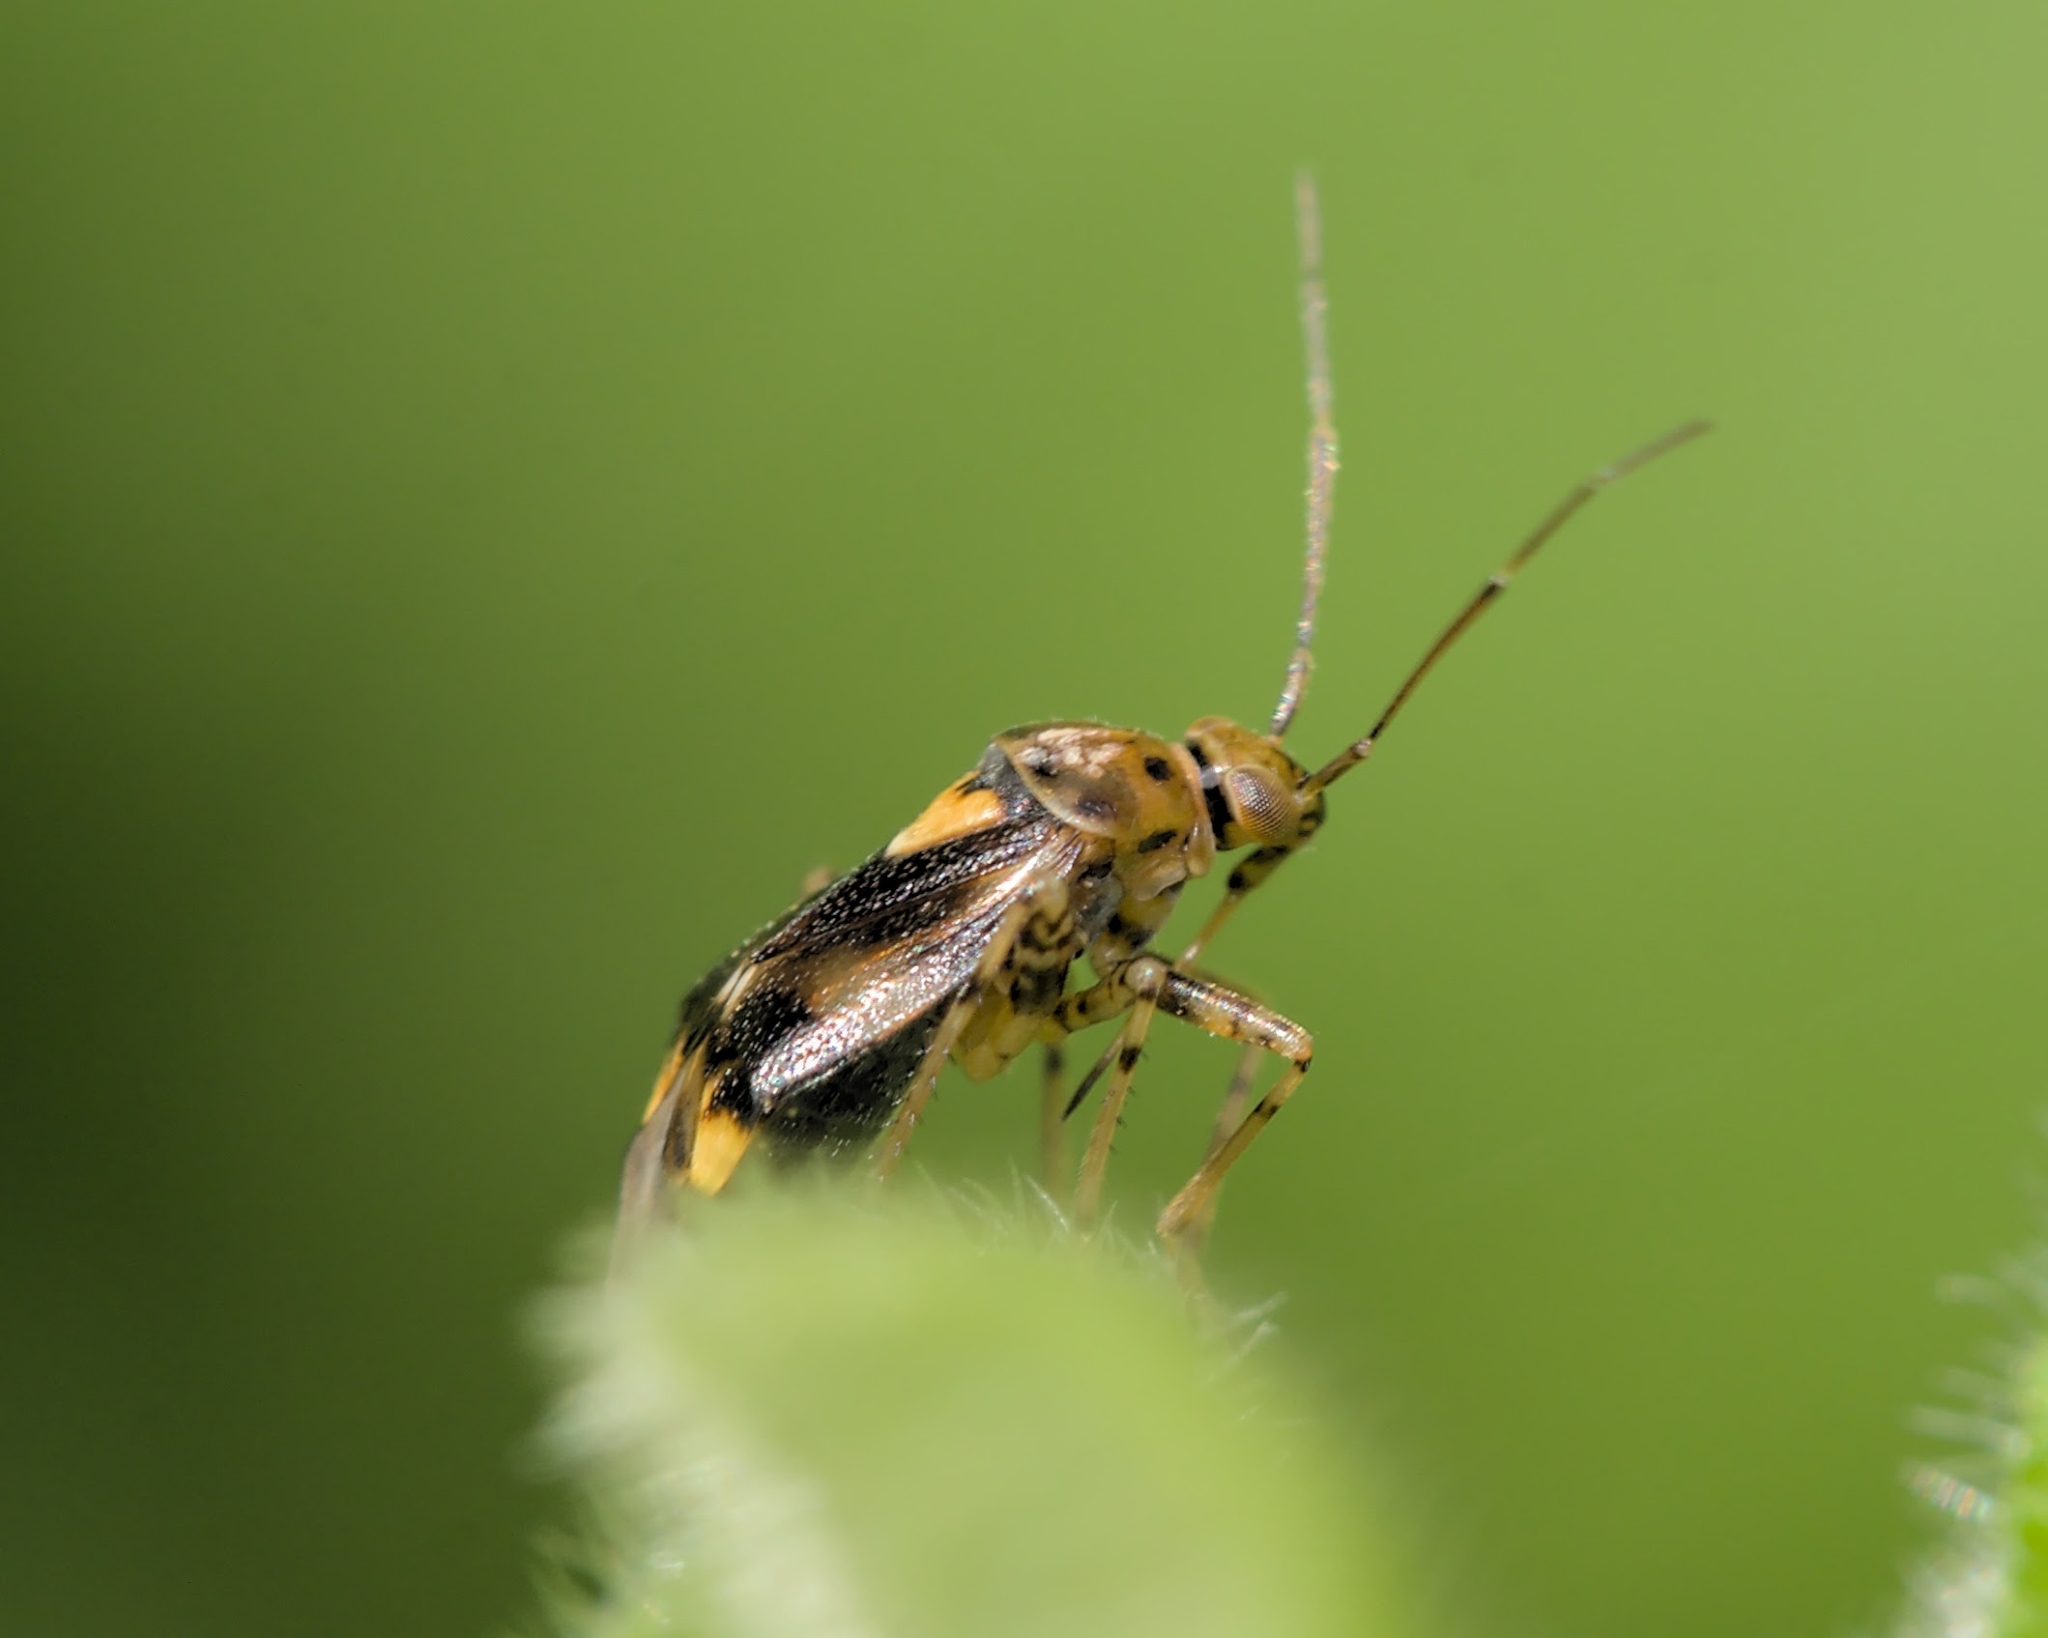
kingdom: Animalia
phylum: Arthropoda
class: Insecta
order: Hemiptera
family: Miridae
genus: Liocoris
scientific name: Liocoris tripustulatus
